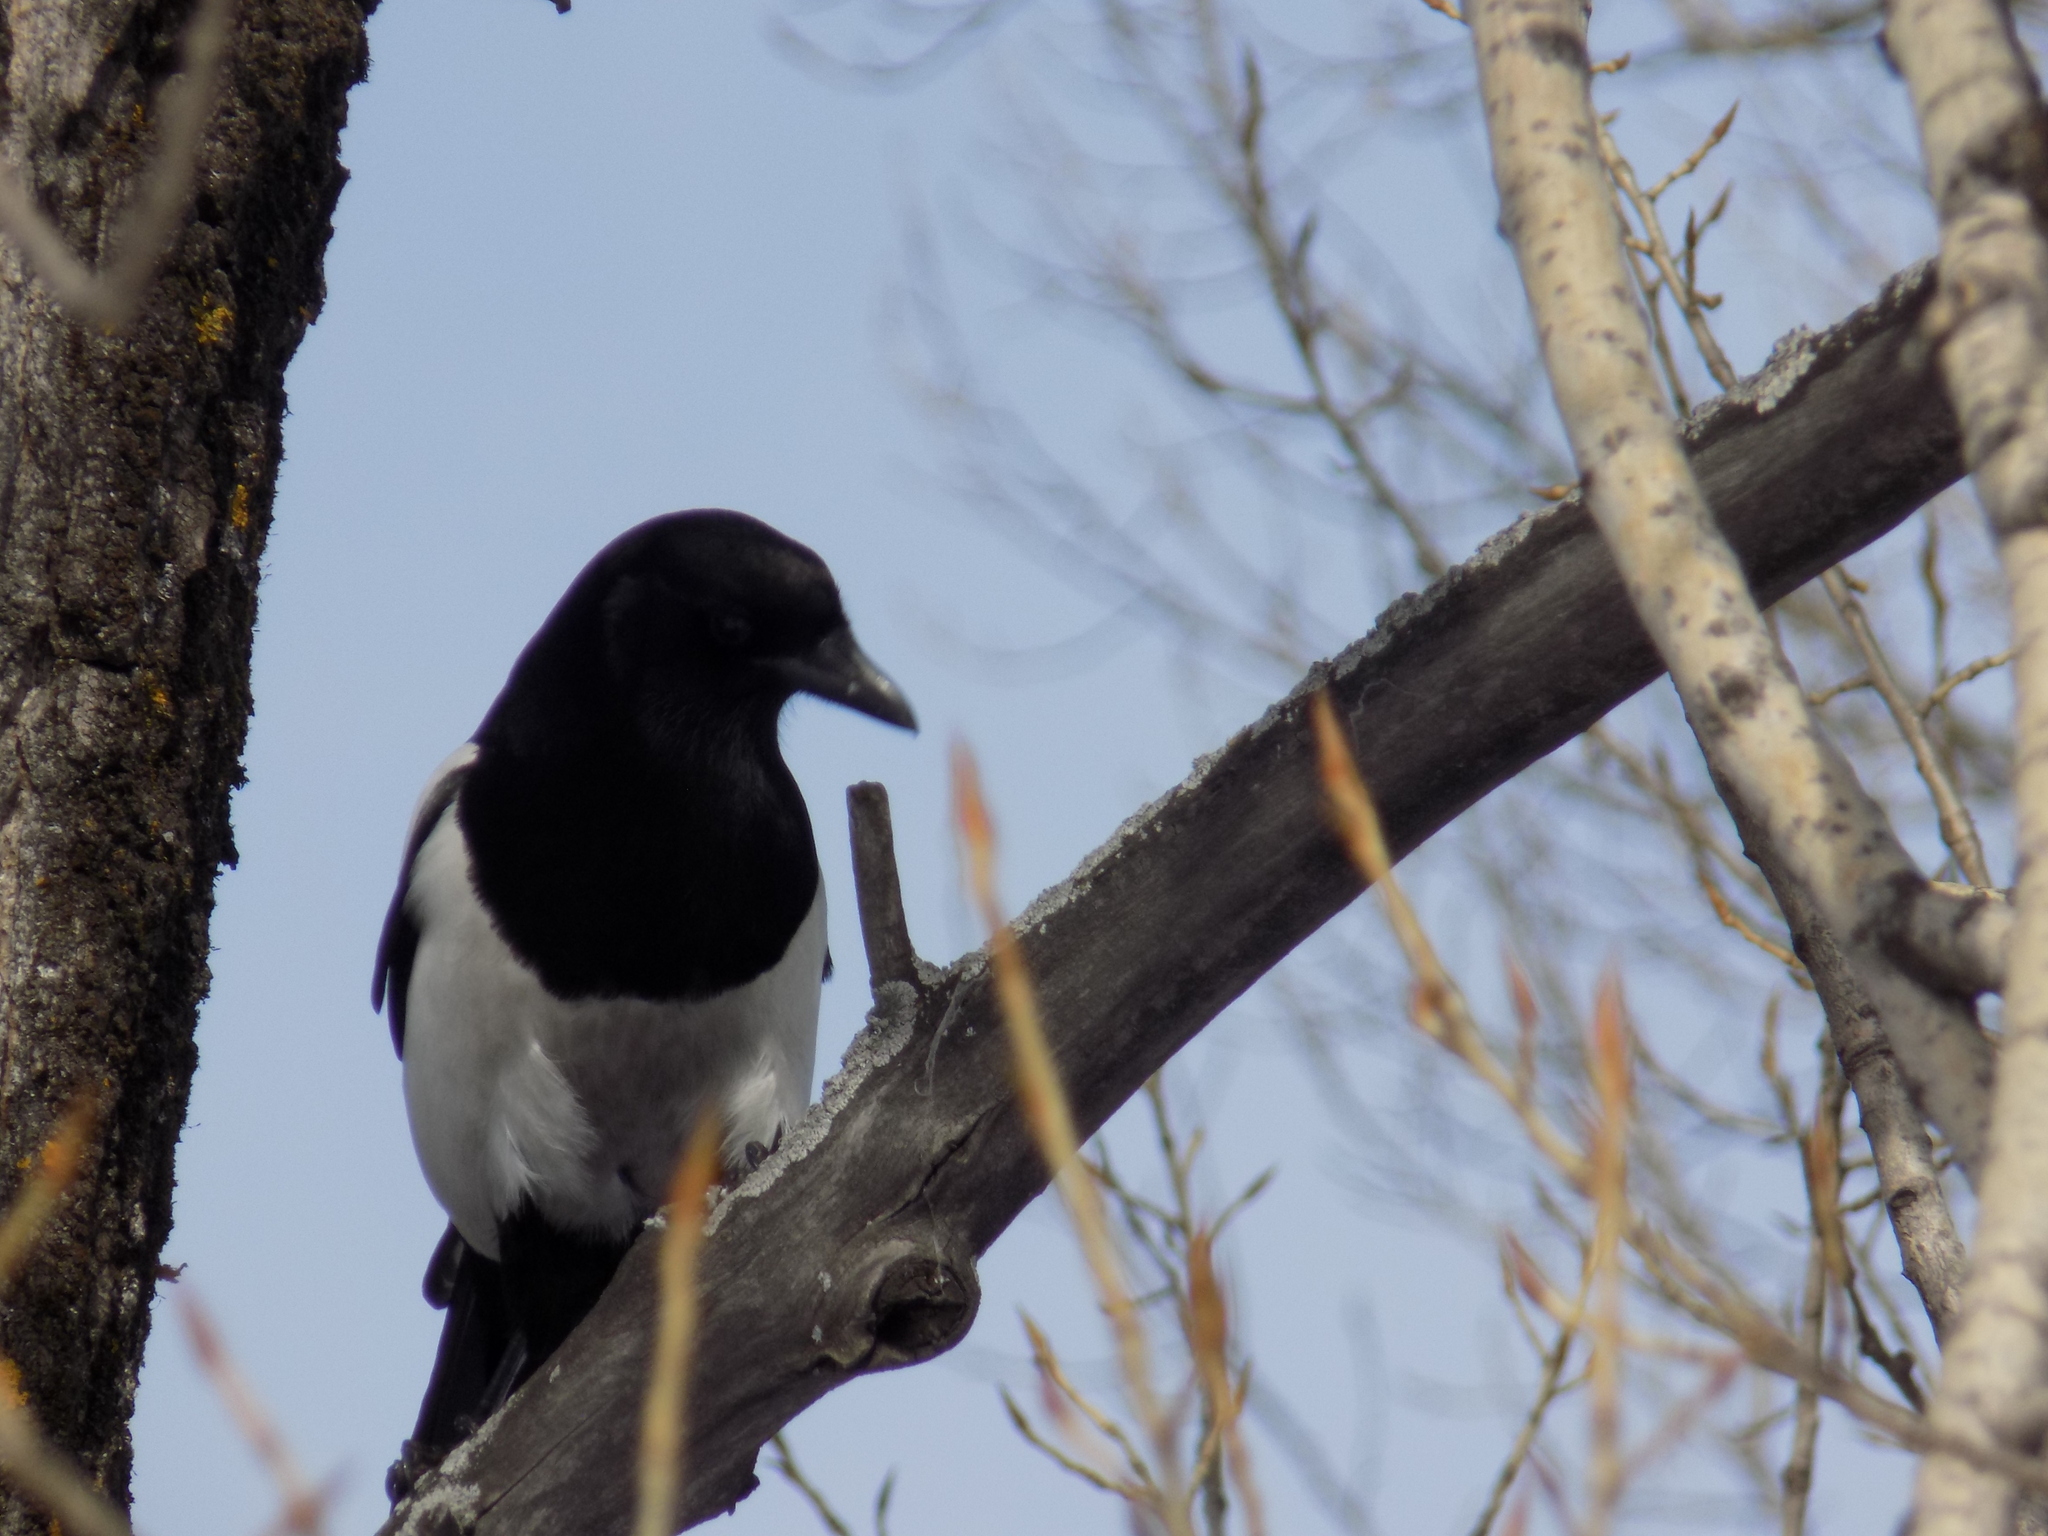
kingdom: Animalia
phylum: Chordata
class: Aves
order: Passeriformes
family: Corvidae
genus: Pica
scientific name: Pica pica
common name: Eurasian magpie
